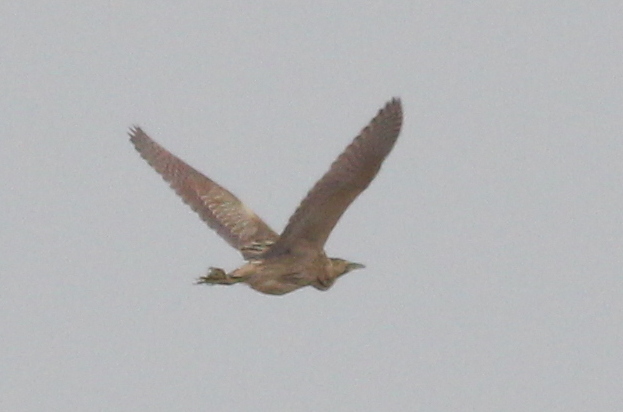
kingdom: Animalia
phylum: Chordata
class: Aves
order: Pelecaniformes
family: Ardeidae
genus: Botaurus
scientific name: Botaurus stellaris
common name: Eurasian bittern
